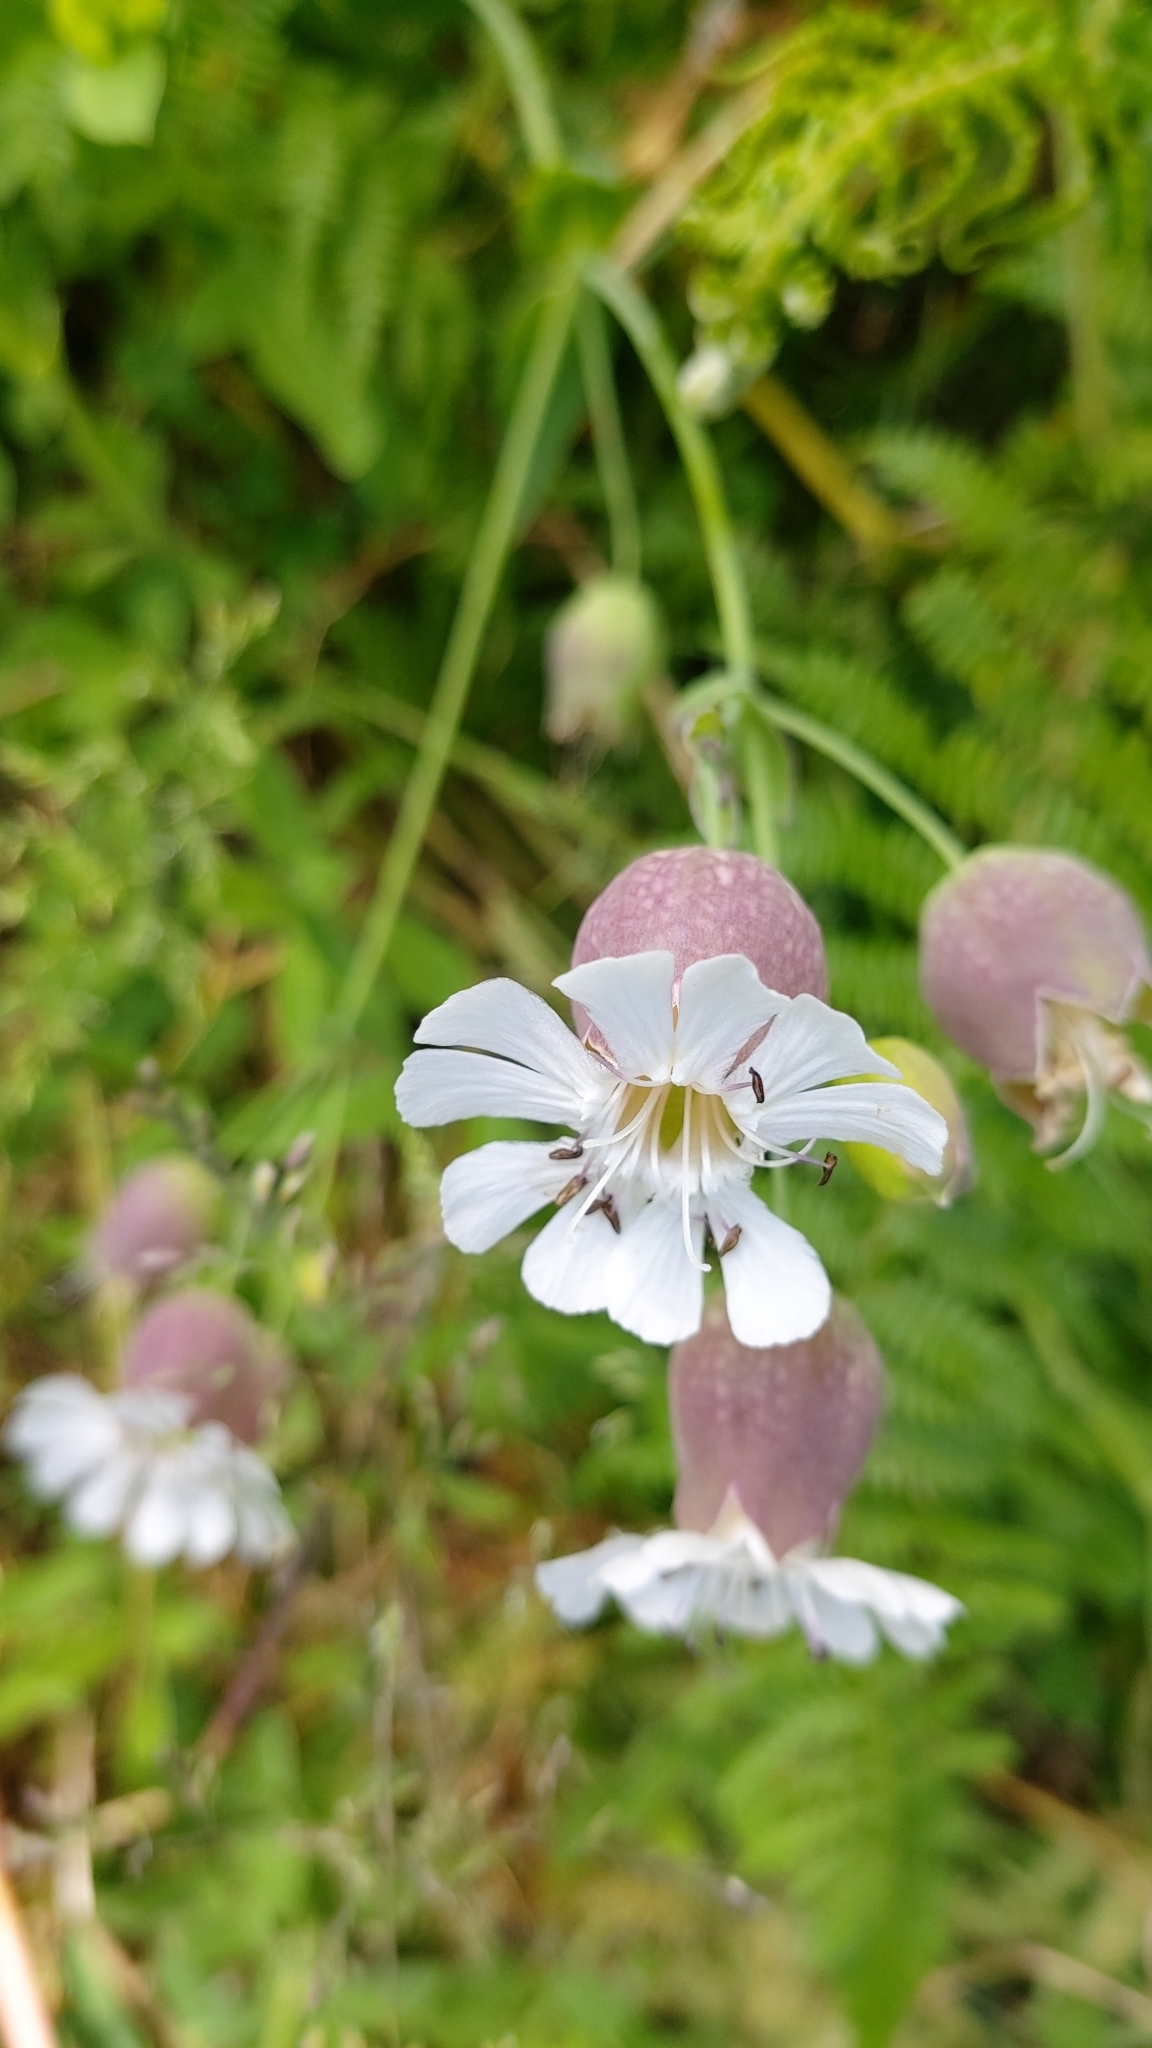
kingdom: Plantae
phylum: Tracheophyta
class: Magnoliopsida
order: Caryophyllales
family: Caryophyllaceae
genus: Silene
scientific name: Silene uniflora
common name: Sea campion
